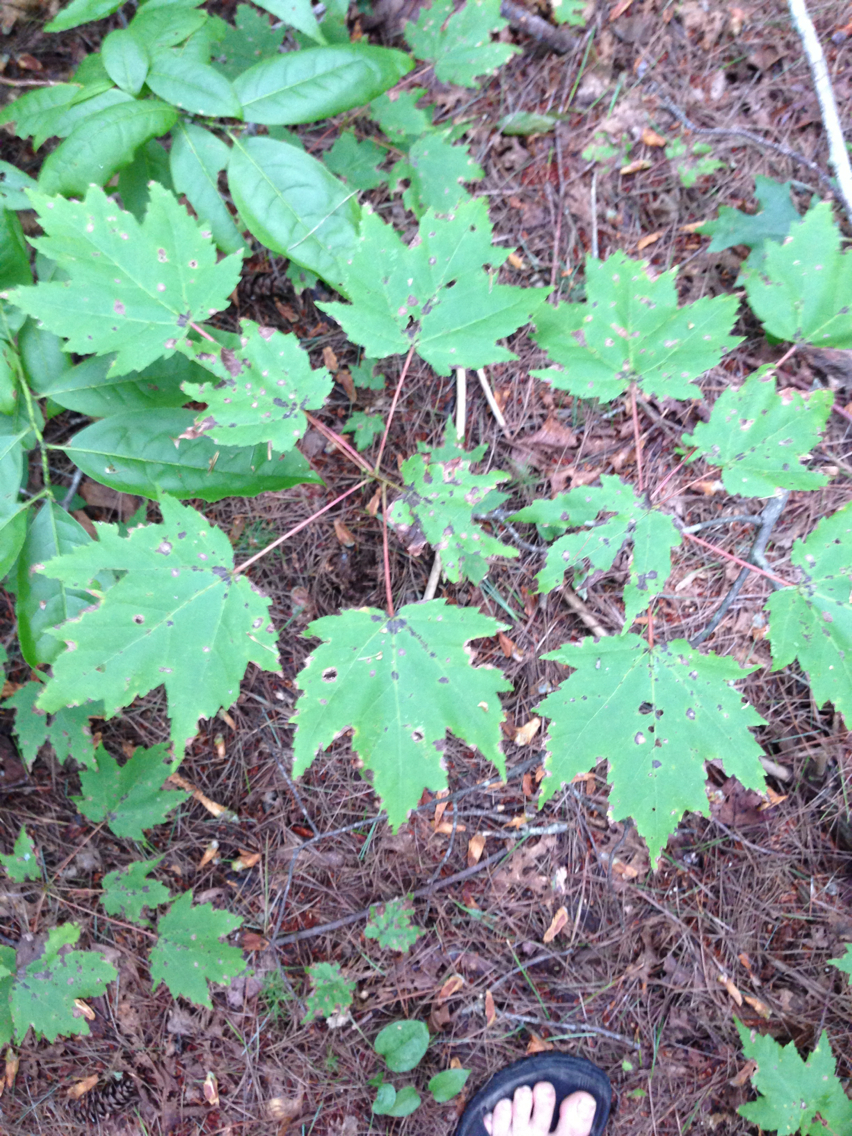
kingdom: Plantae
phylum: Tracheophyta
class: Magnoliopsida
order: Sapindales
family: Sapindaceae
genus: Acer
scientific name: Acer rubrum
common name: Red maple
